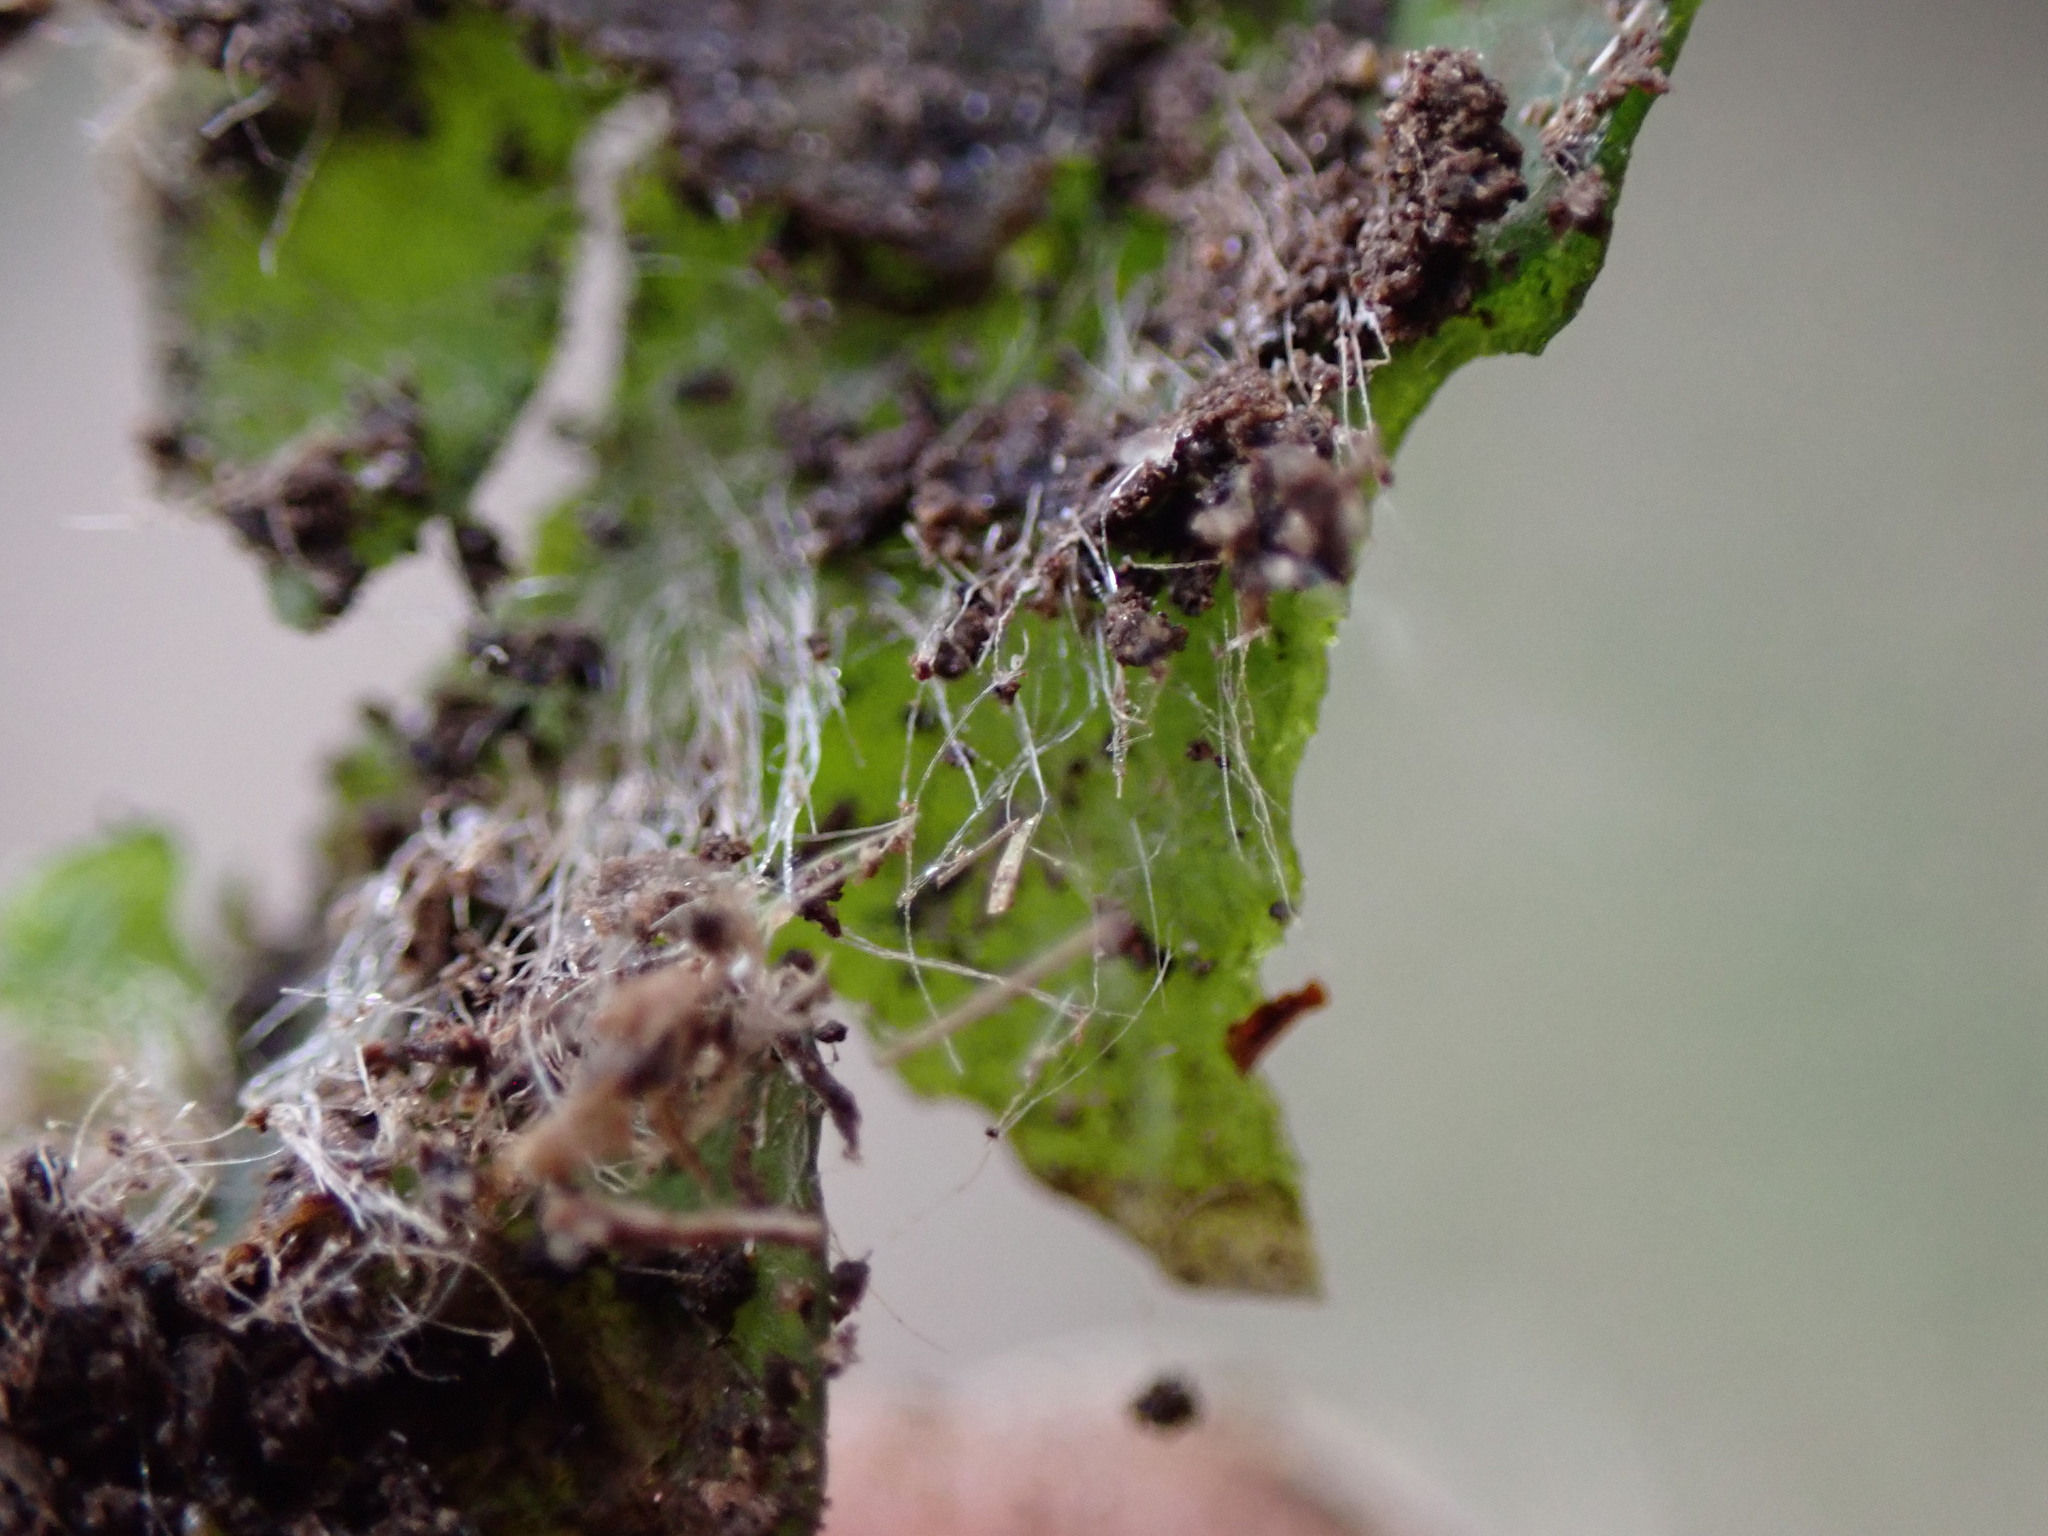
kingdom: Plantae
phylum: Marchantiophyta
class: Marchantiopsida
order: Marchantiales
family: Dumortieraceae
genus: Dumortiera
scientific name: Dumortiera hirsuta
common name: Dumortier's liverwort
